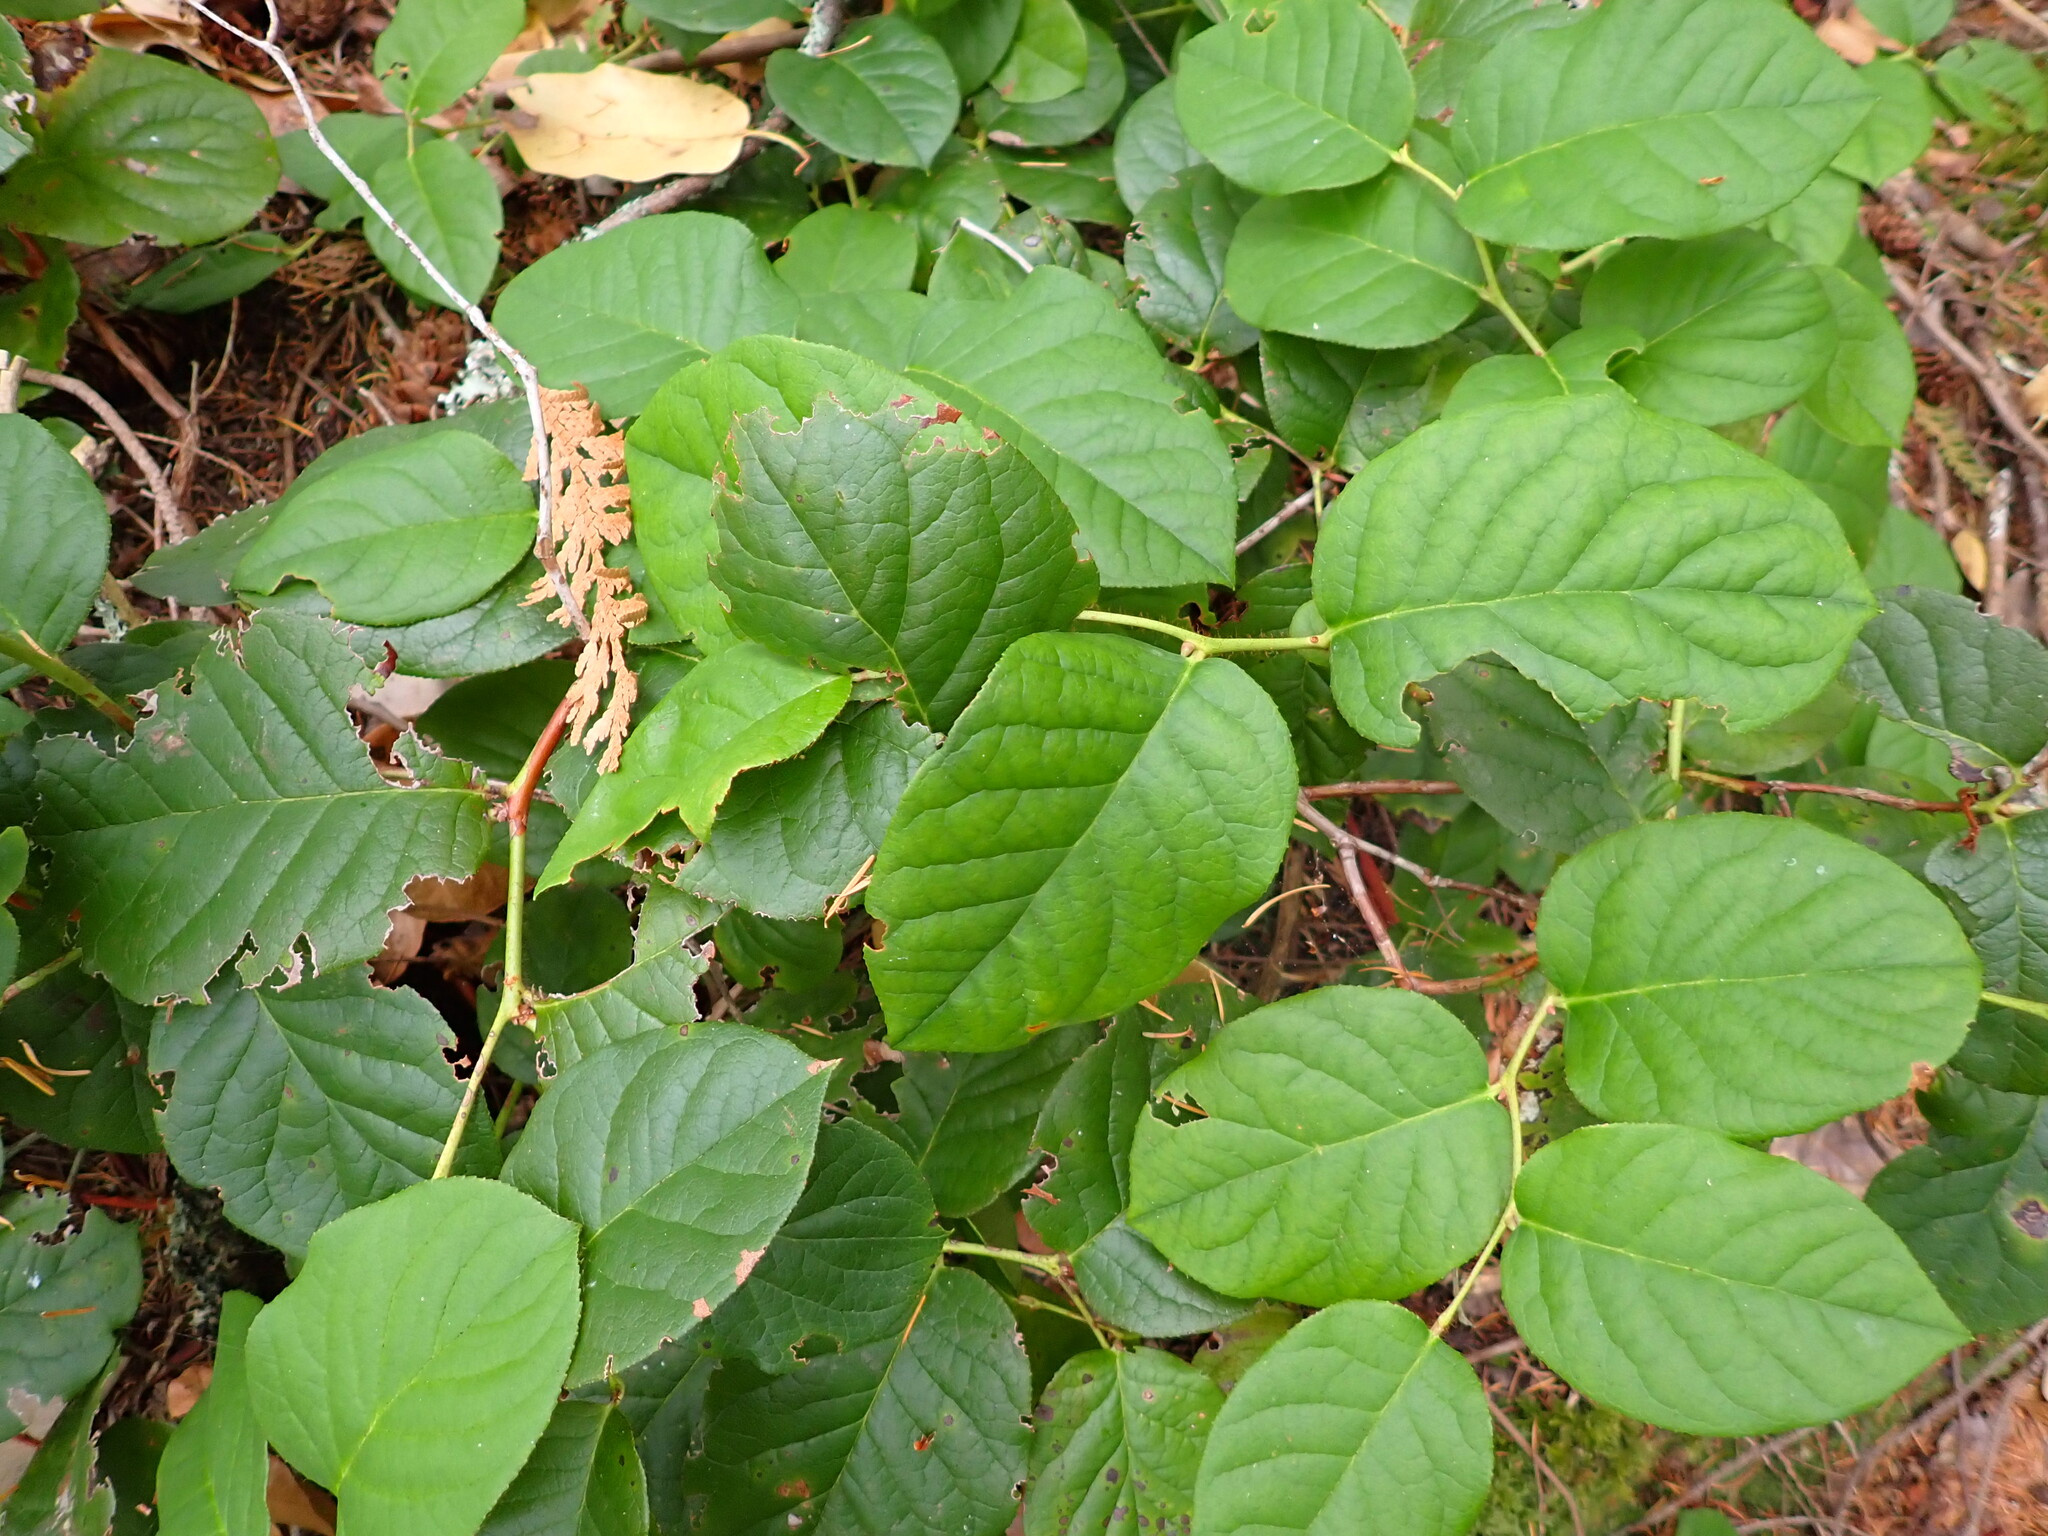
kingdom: Plantae
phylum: Tracheophyta
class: Magnoliopsida
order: Ericales
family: Ericaceae
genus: Gaultheria
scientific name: Gaultheria shallon
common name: Shallon
